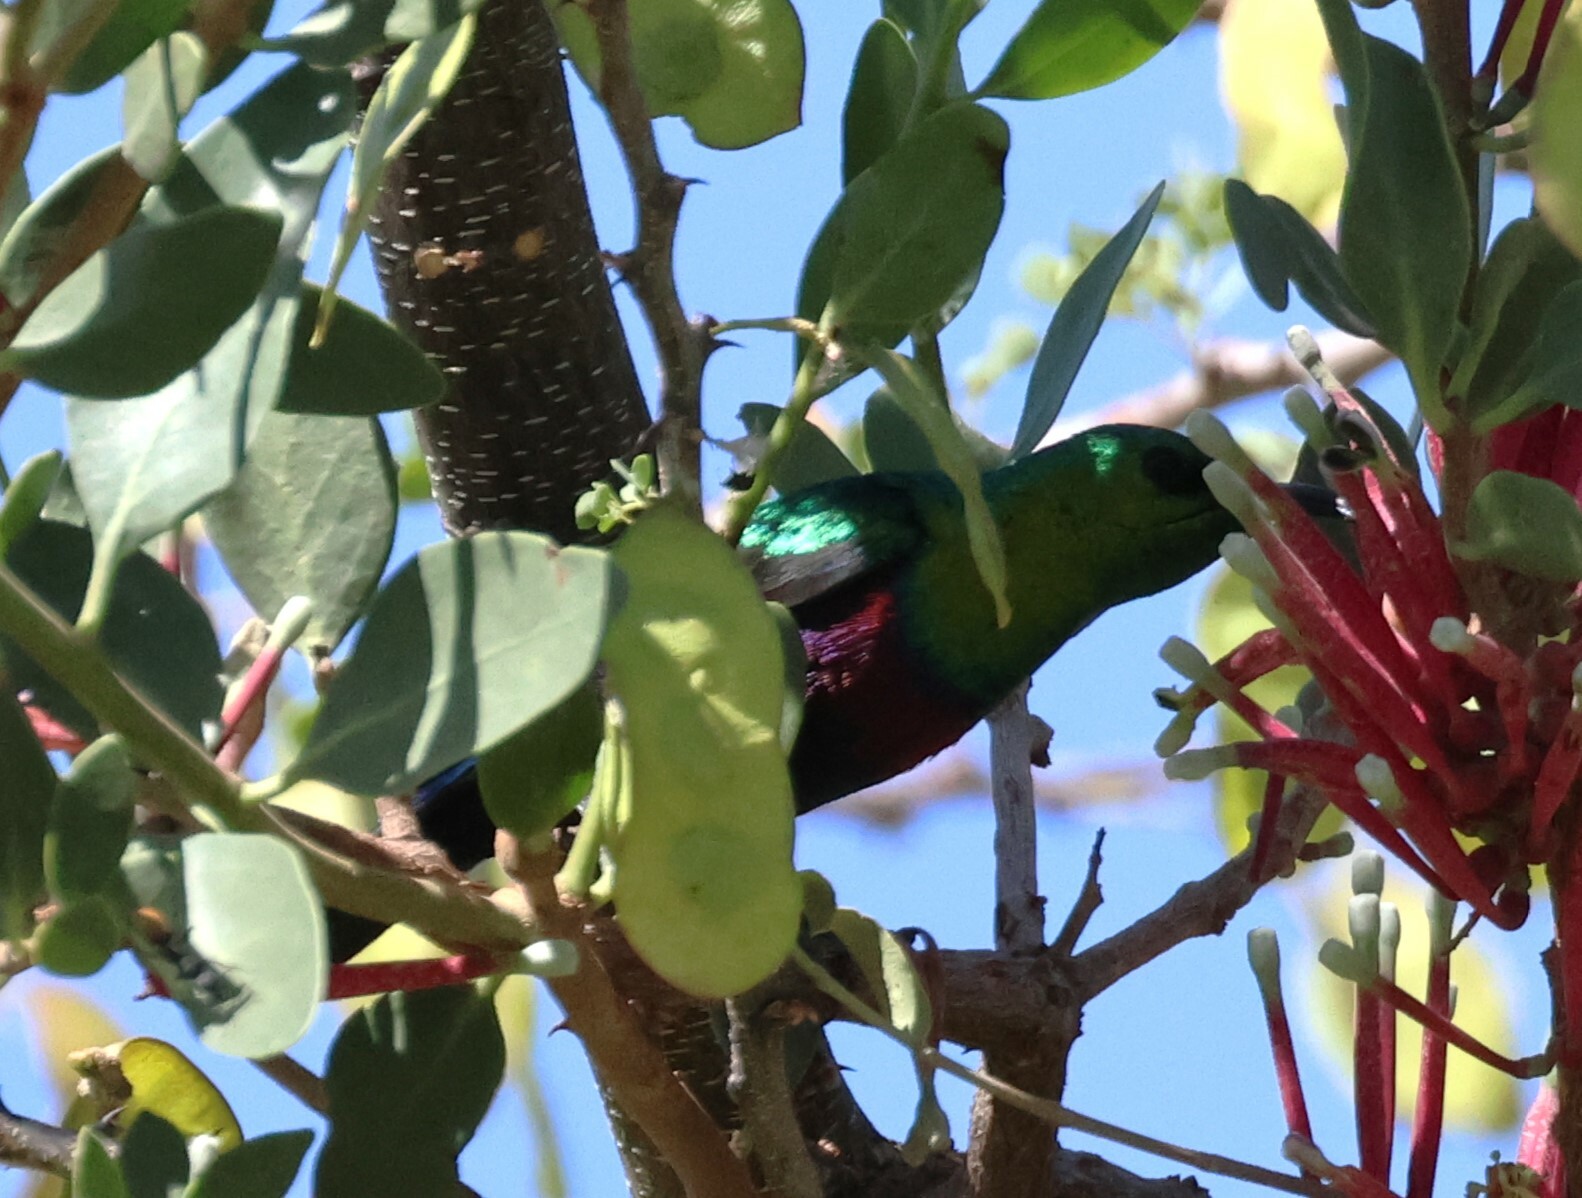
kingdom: Animalia
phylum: Chordata
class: Aves
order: Passeriformes
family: Nectariniidae
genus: Cinnyris
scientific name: Cinnyris mariquensis
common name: Marico sunbird
